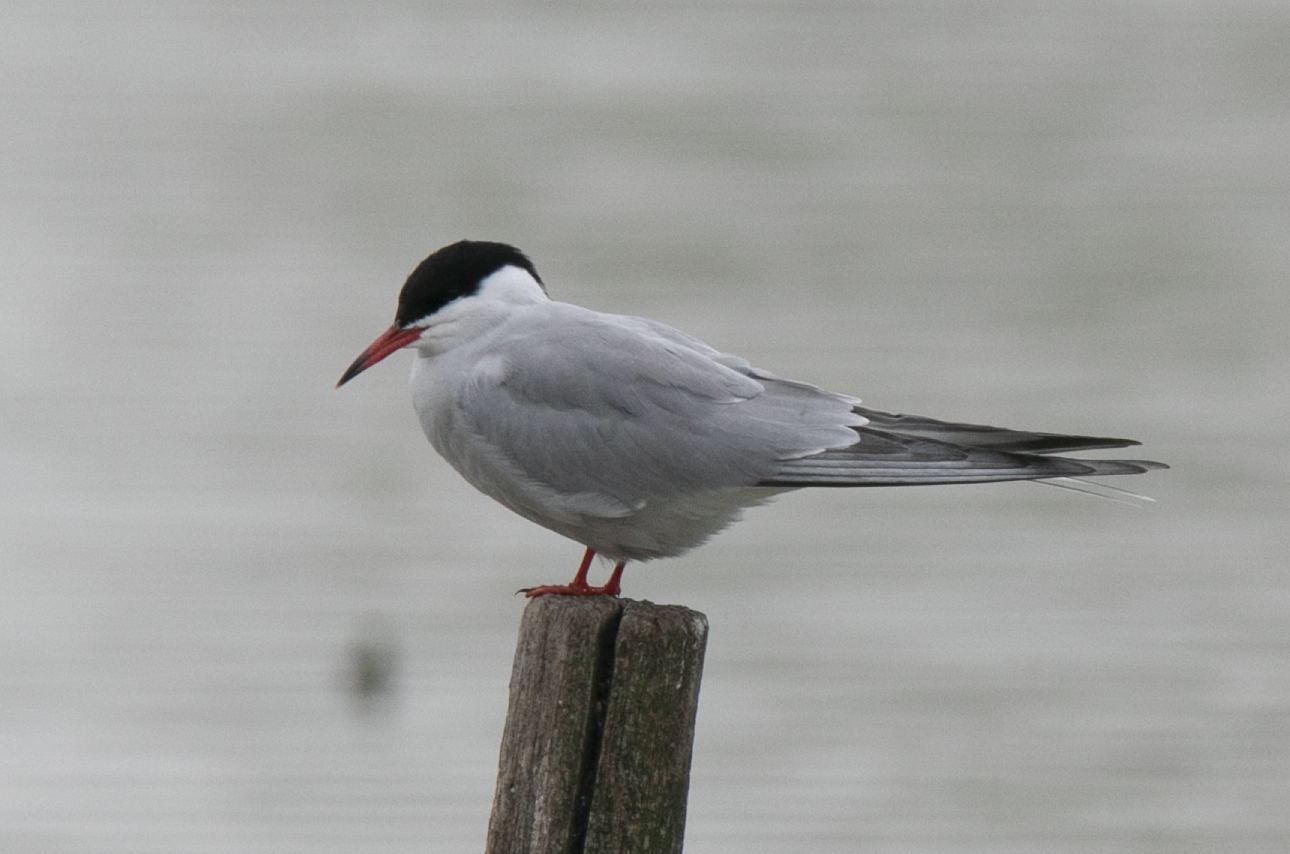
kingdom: Animalia
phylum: Chordata
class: Aves
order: Charadriiformes
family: Laridae
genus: Sterna
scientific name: Sterna hirundo
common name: Common tern
